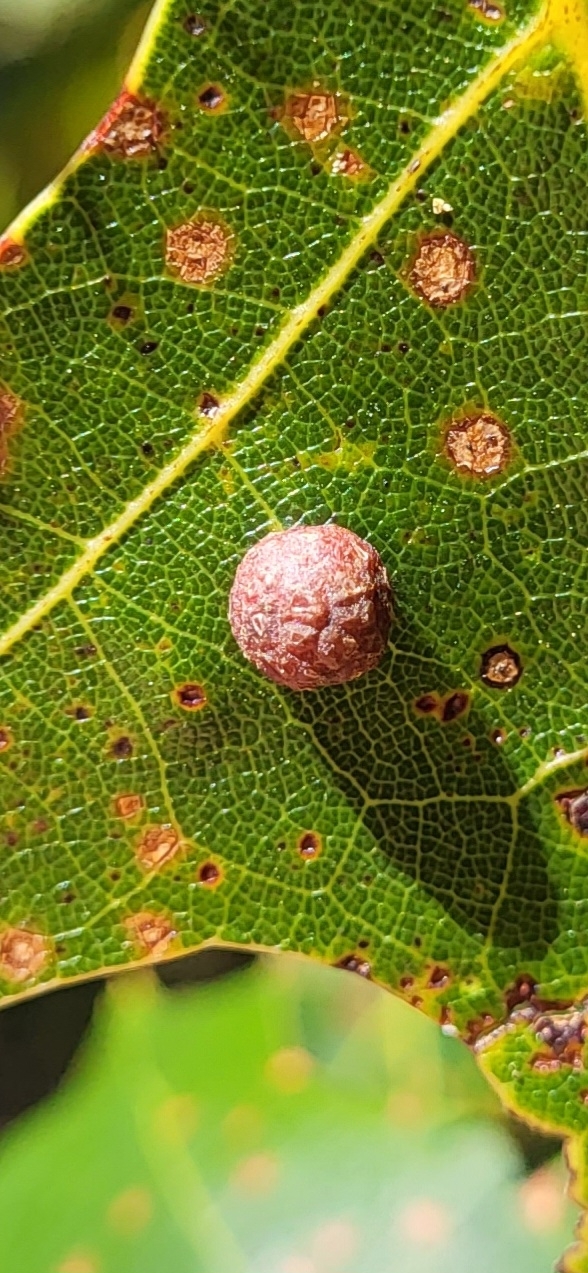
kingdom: Animalia
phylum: Arthropoda
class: Insecta
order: Diptera
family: Cecidomyiidae
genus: Polystepha
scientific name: Polystepha pilulae
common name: Oak leaf gall midge
